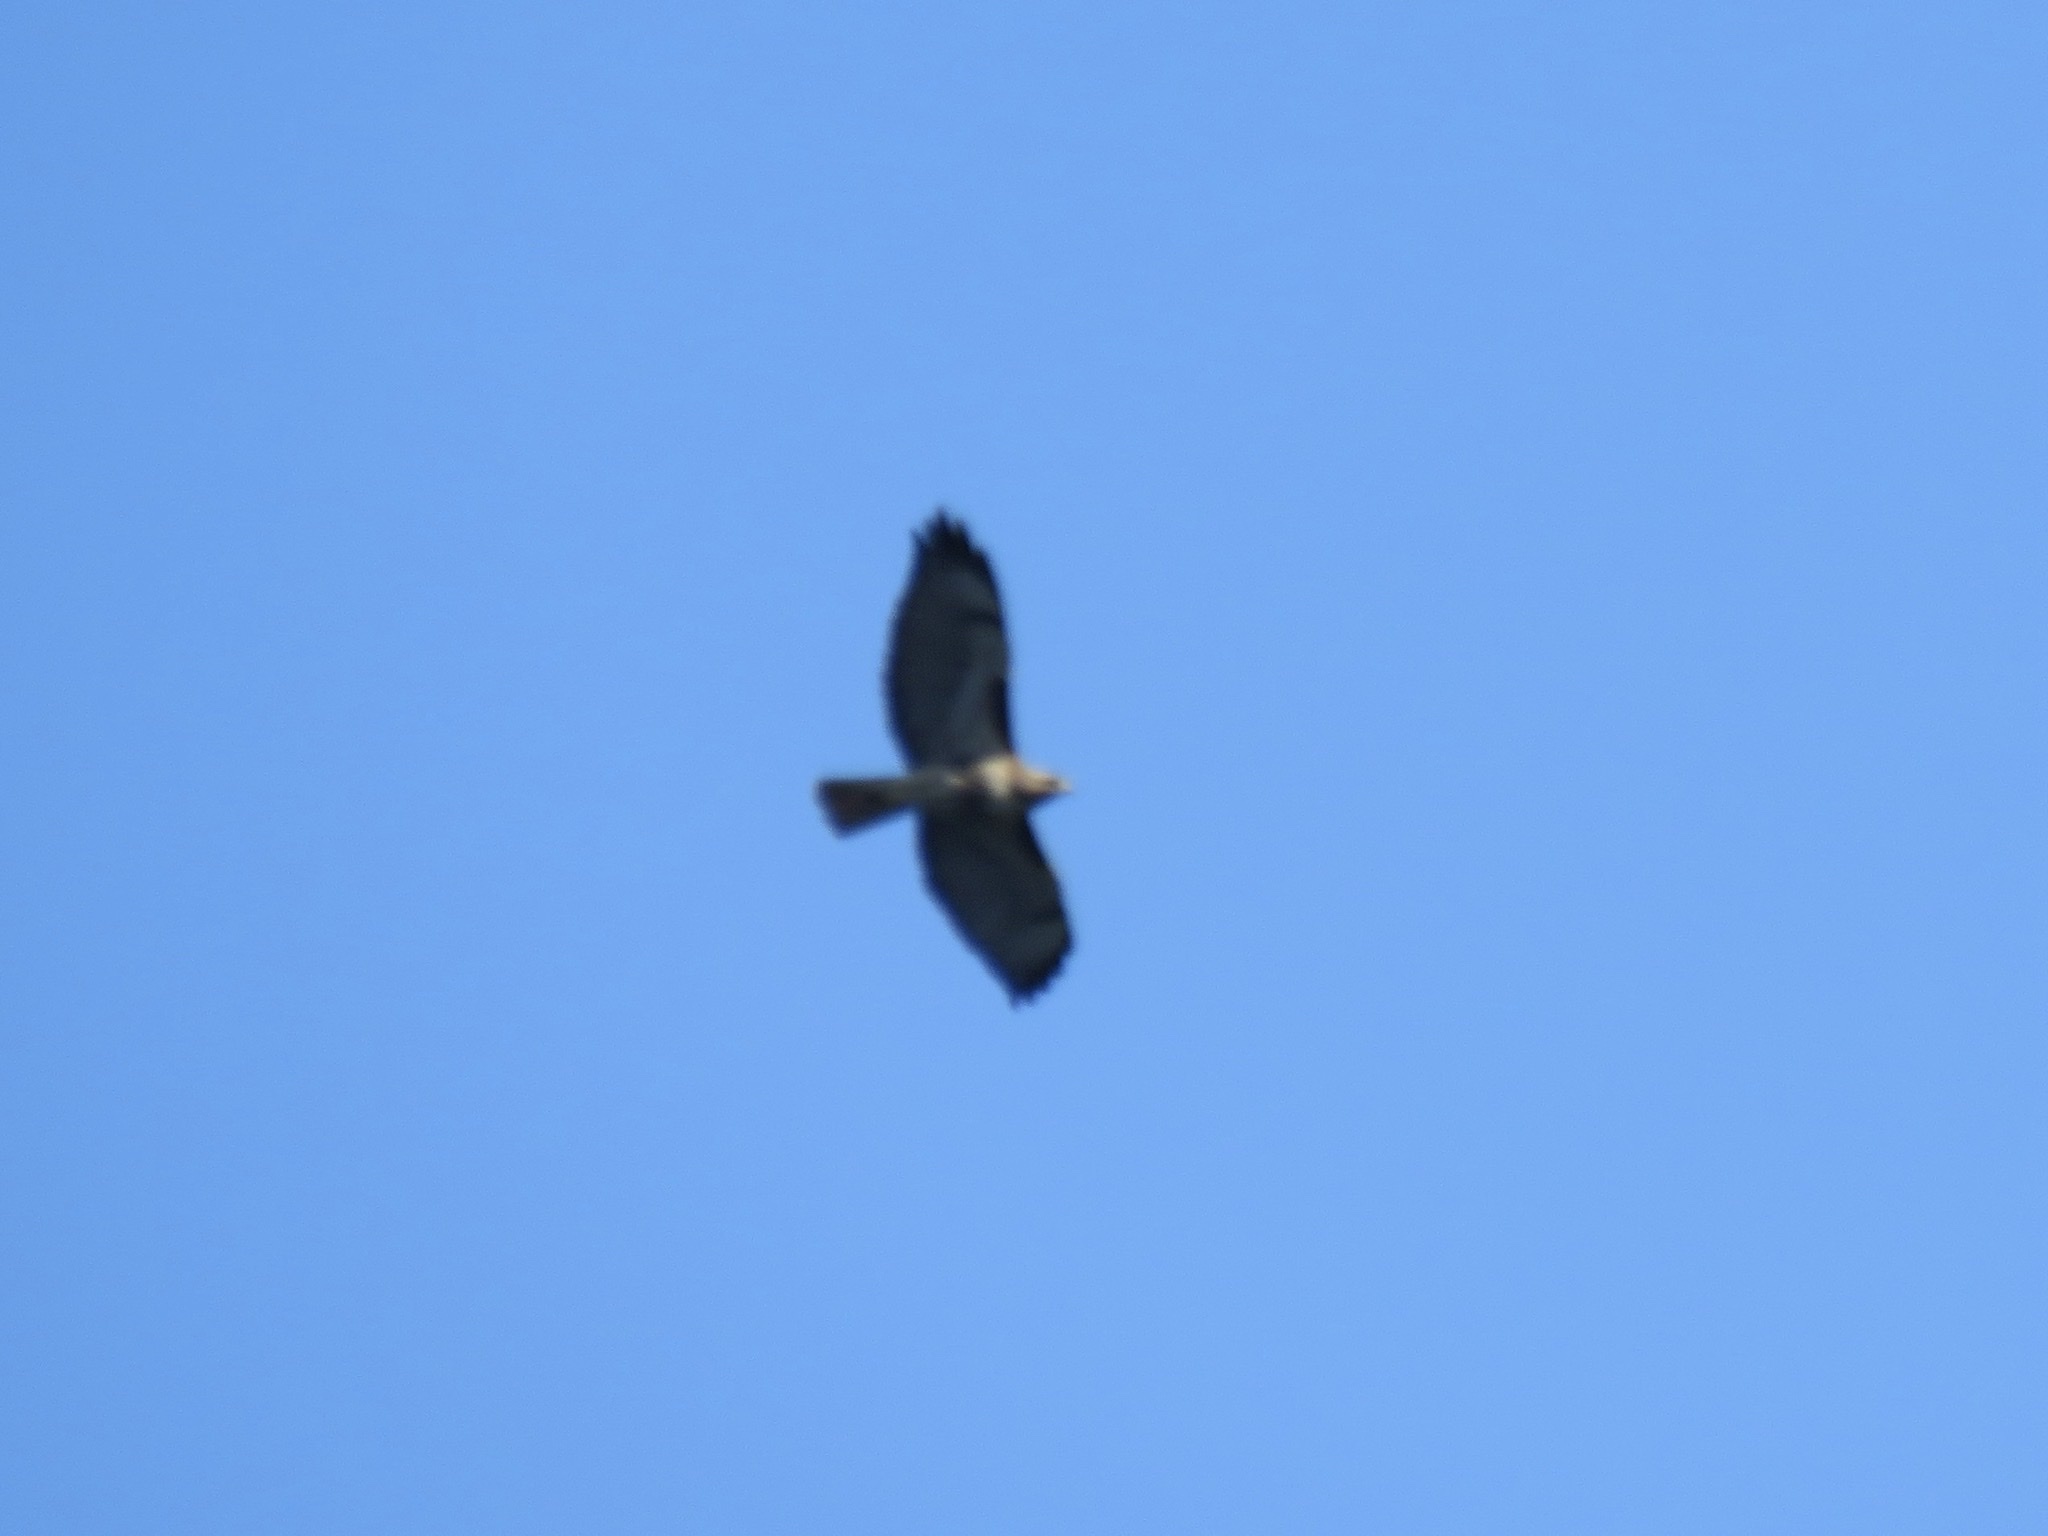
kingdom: Animalia
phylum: Chordata
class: Aves
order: Accipitriformes
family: Accipitridae
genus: Buteo
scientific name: Buteo jamaicensis
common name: Red-tailed hawk
